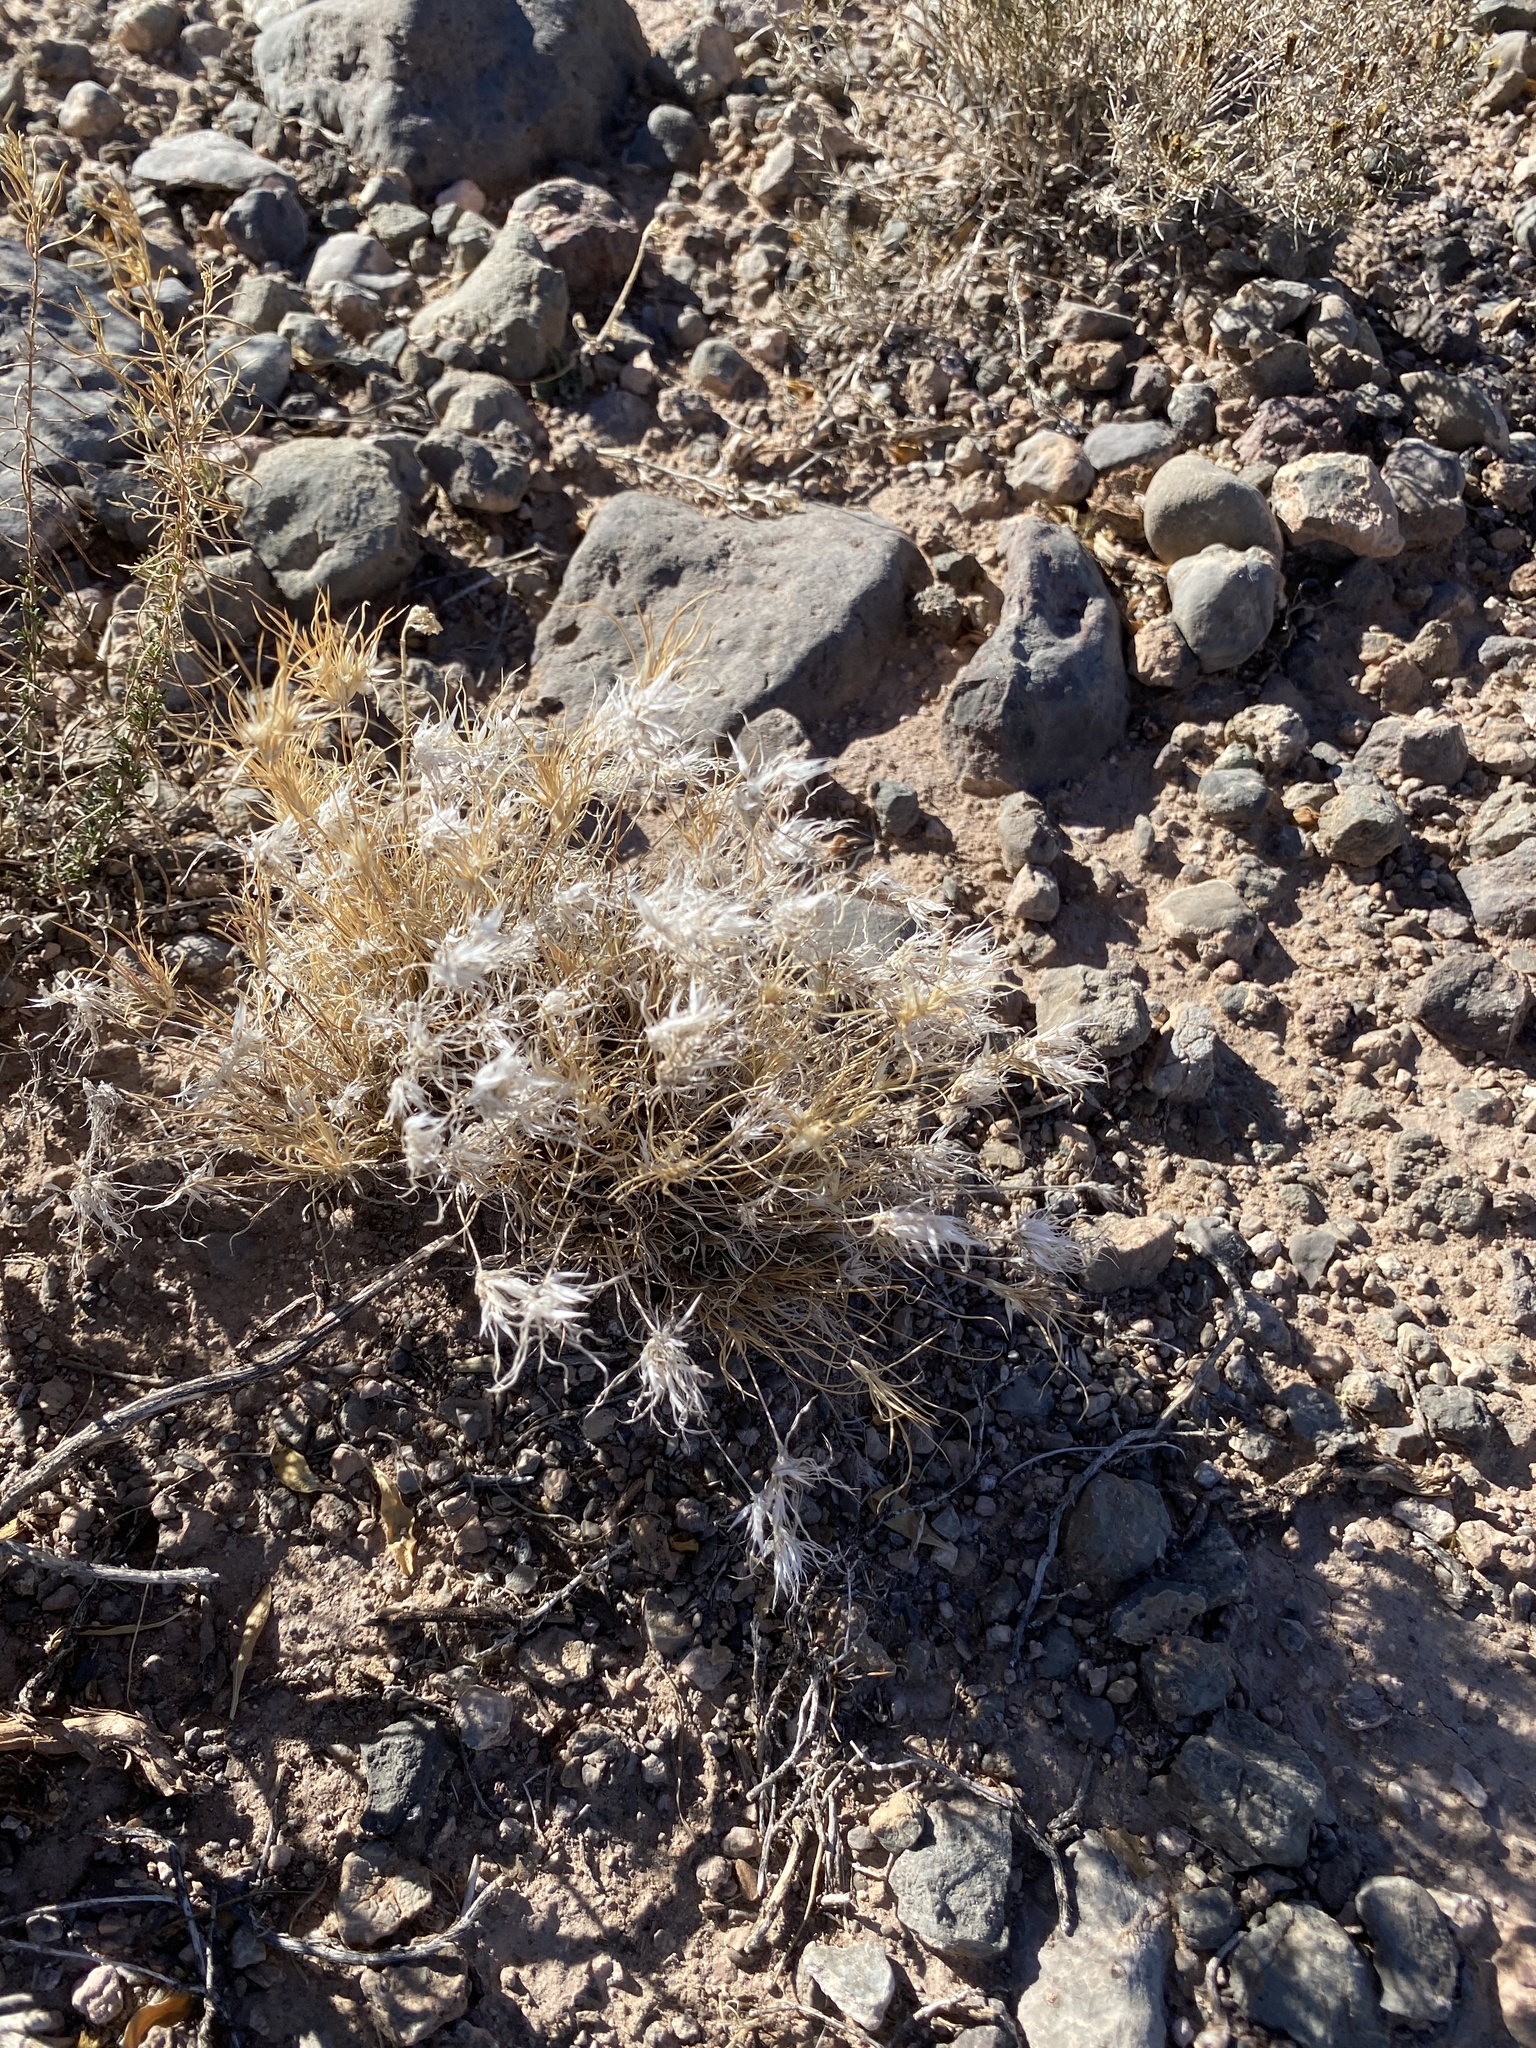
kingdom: Plantae
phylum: Tracheophyta
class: Liliopsida
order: Poales
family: Poaceae
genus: Dasyochloa
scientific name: Dasyochloa pulchella
